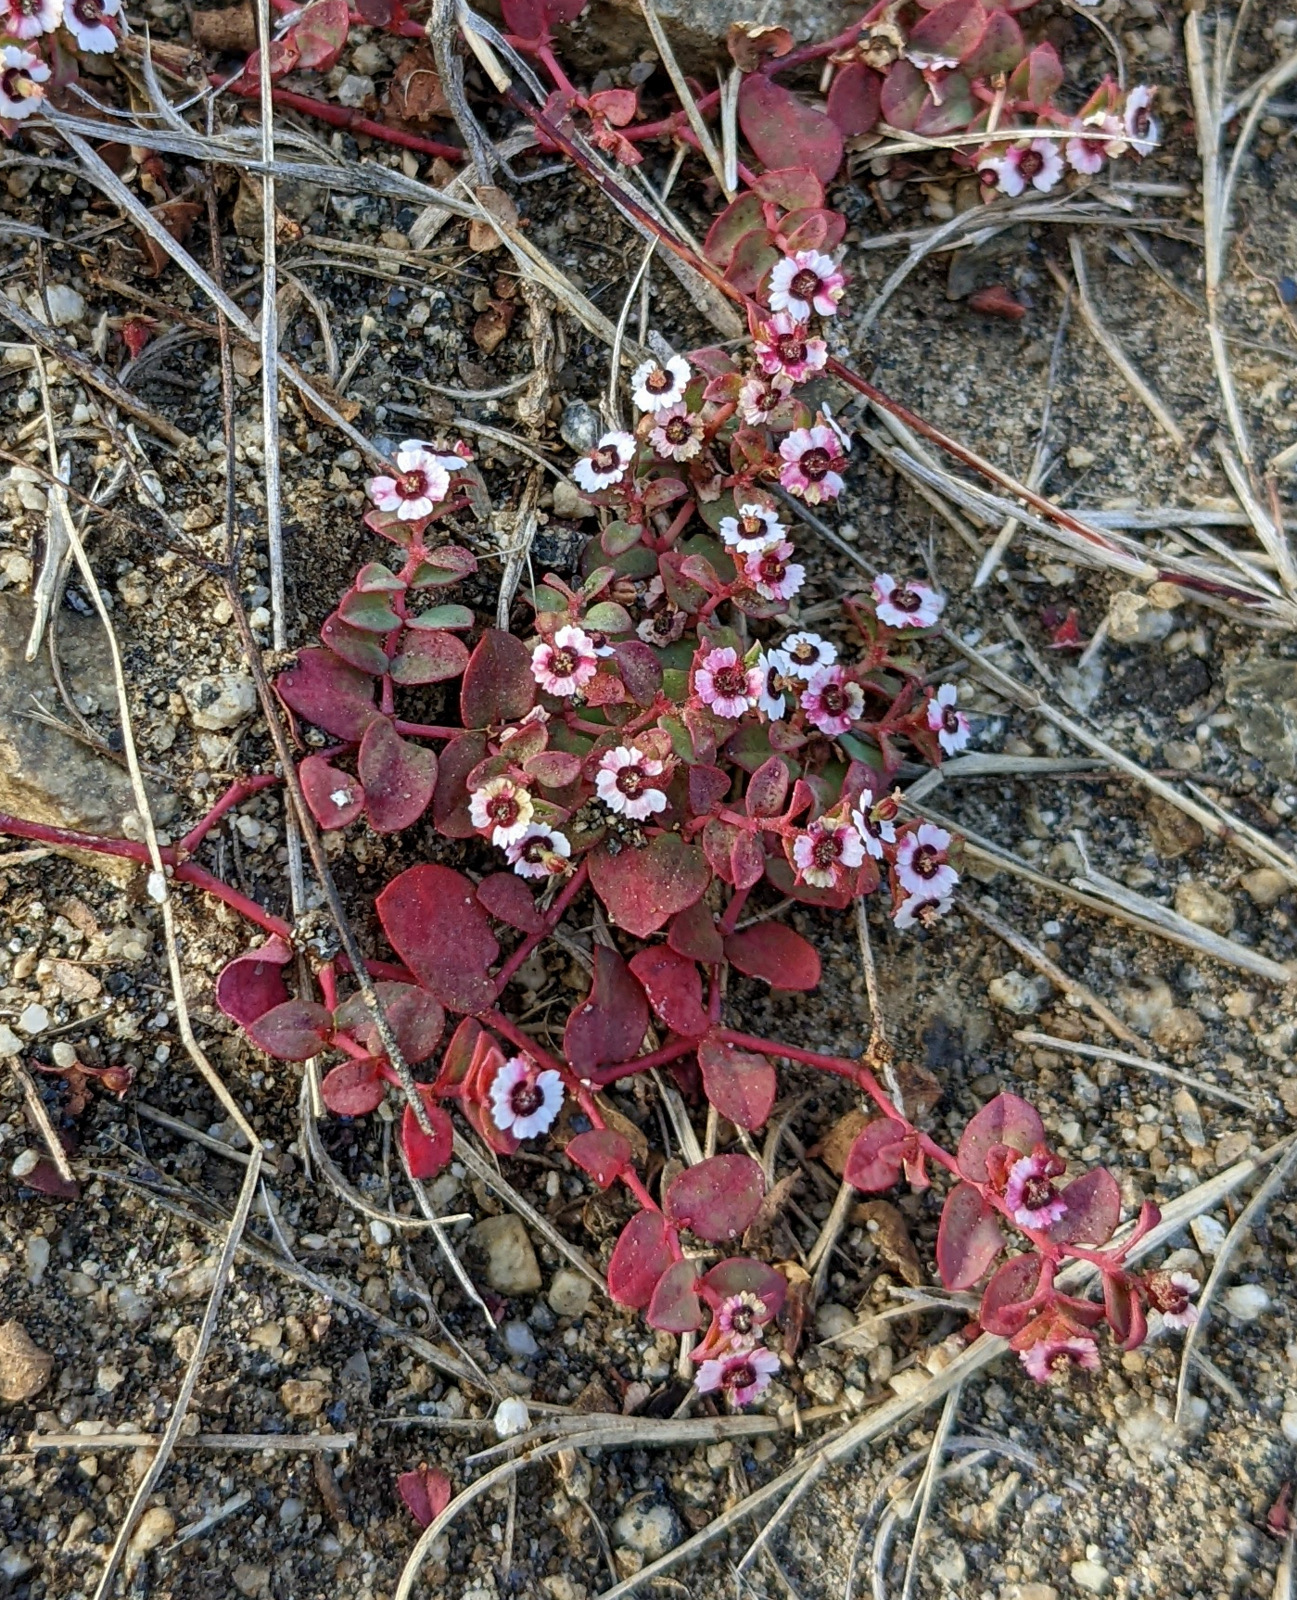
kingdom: Plantae
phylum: Tracheophyta
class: Magnoliopsida
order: Malpighiales
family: Euphorbiaceae
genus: Euphorbia
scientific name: Euphorbia polycarpa
